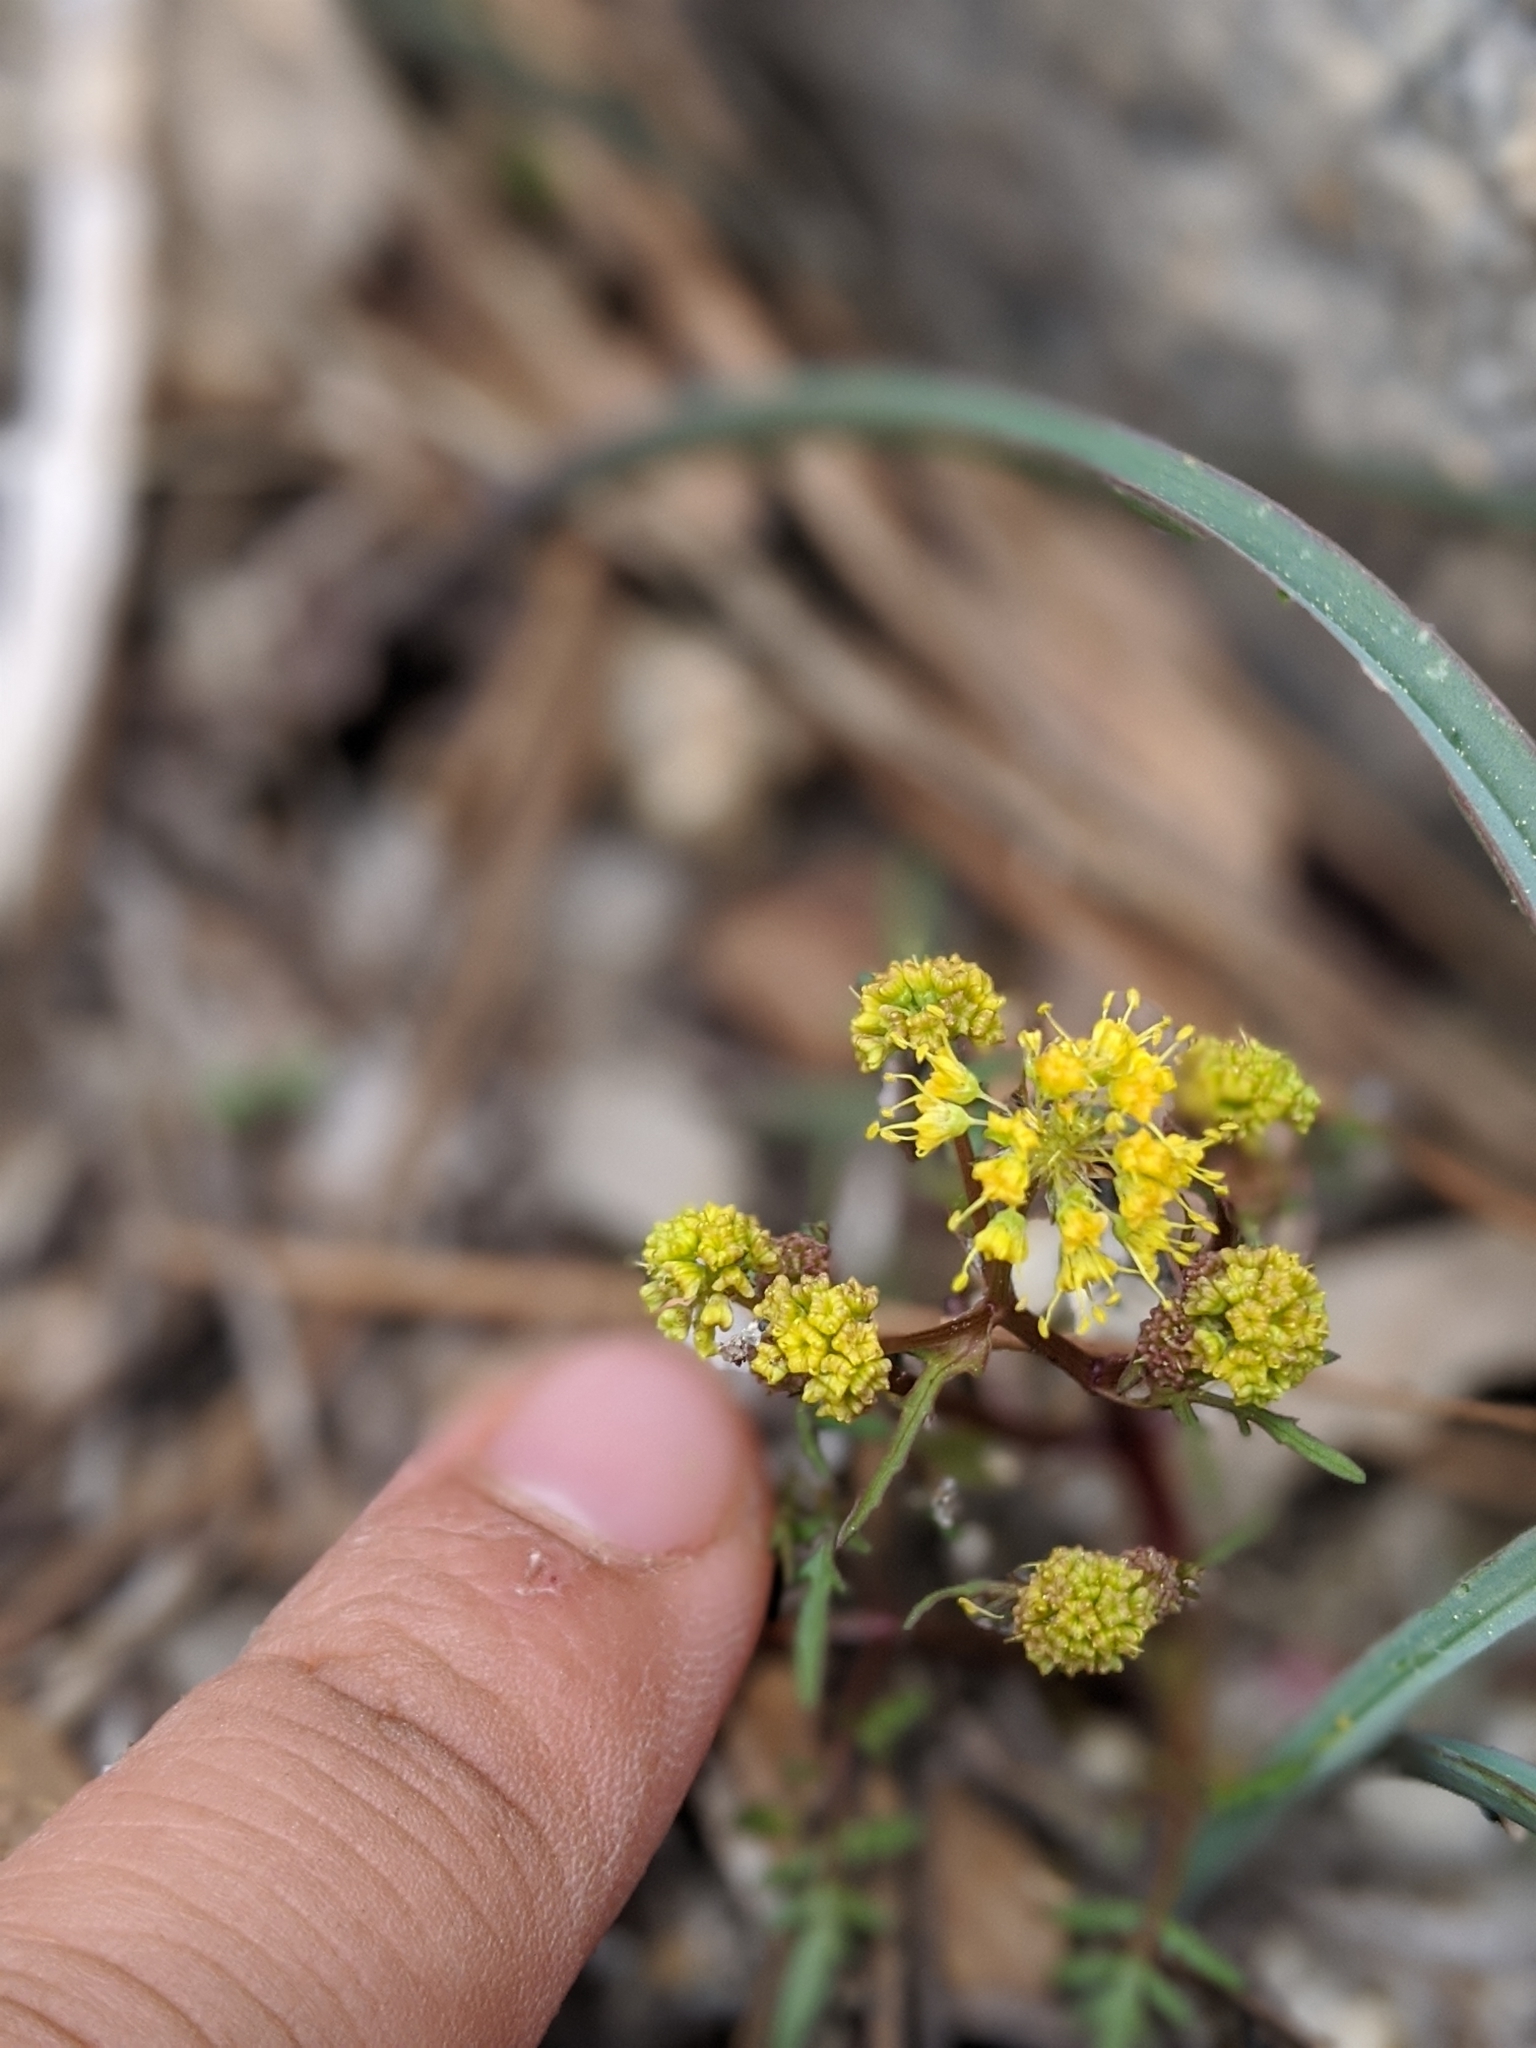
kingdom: Plantae
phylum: Tracheophyta
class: Magnoliopsida
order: Apiales
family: Apiaceae
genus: Sanicula
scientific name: Sanicula tuberosa
